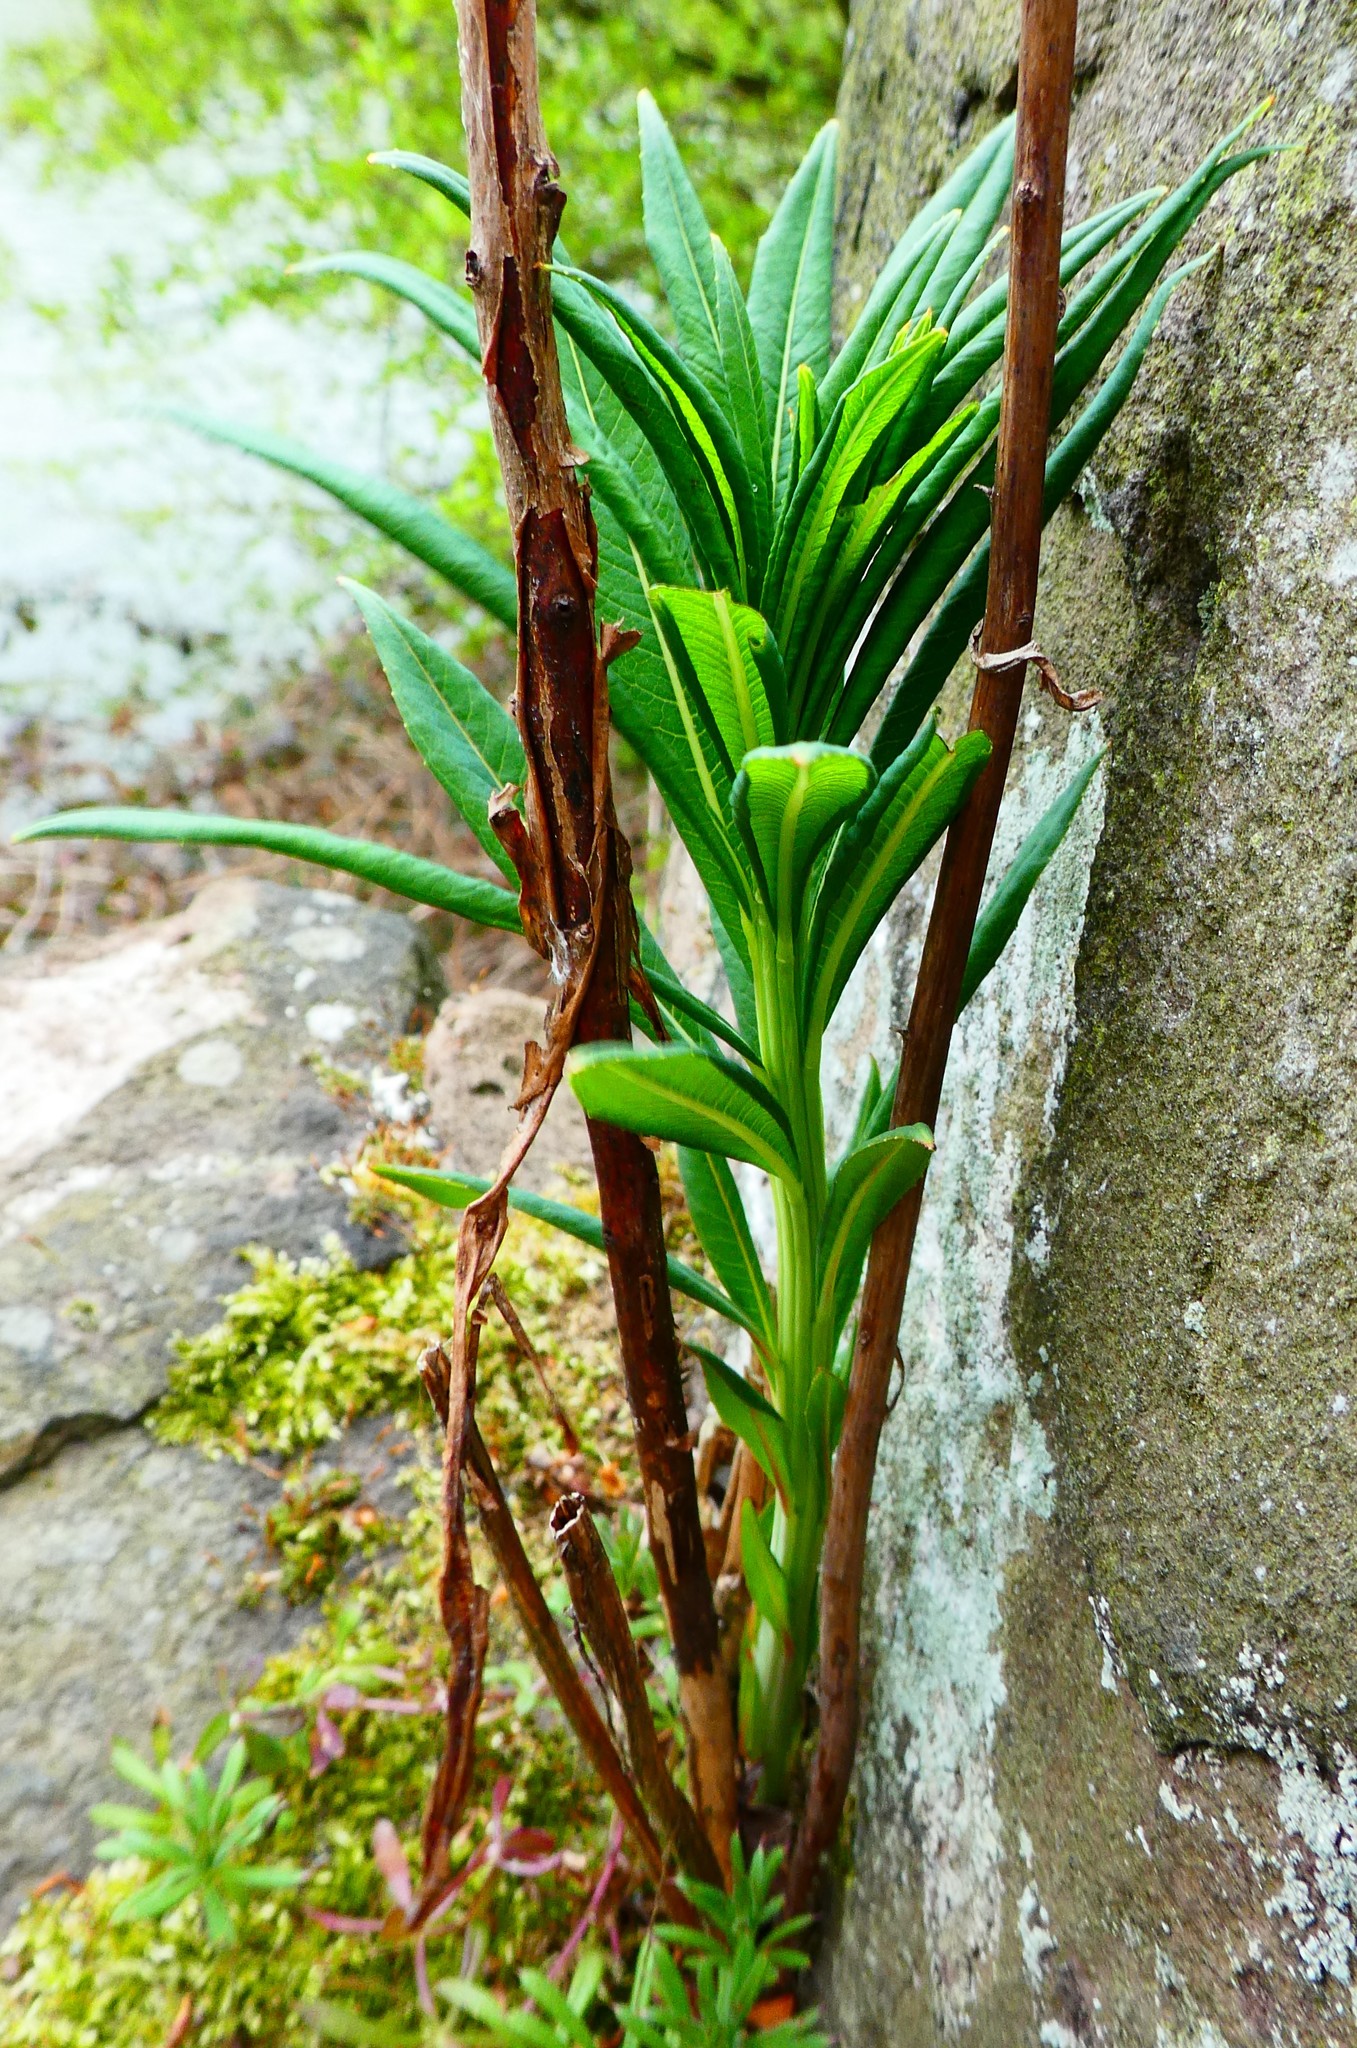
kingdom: Plantae
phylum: Tracheophyta
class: Magnoliopsida
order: Myrtales
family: Onagraceae
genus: Chamaenerion
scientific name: Chamaenerion angustifolium
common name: Fireweed
